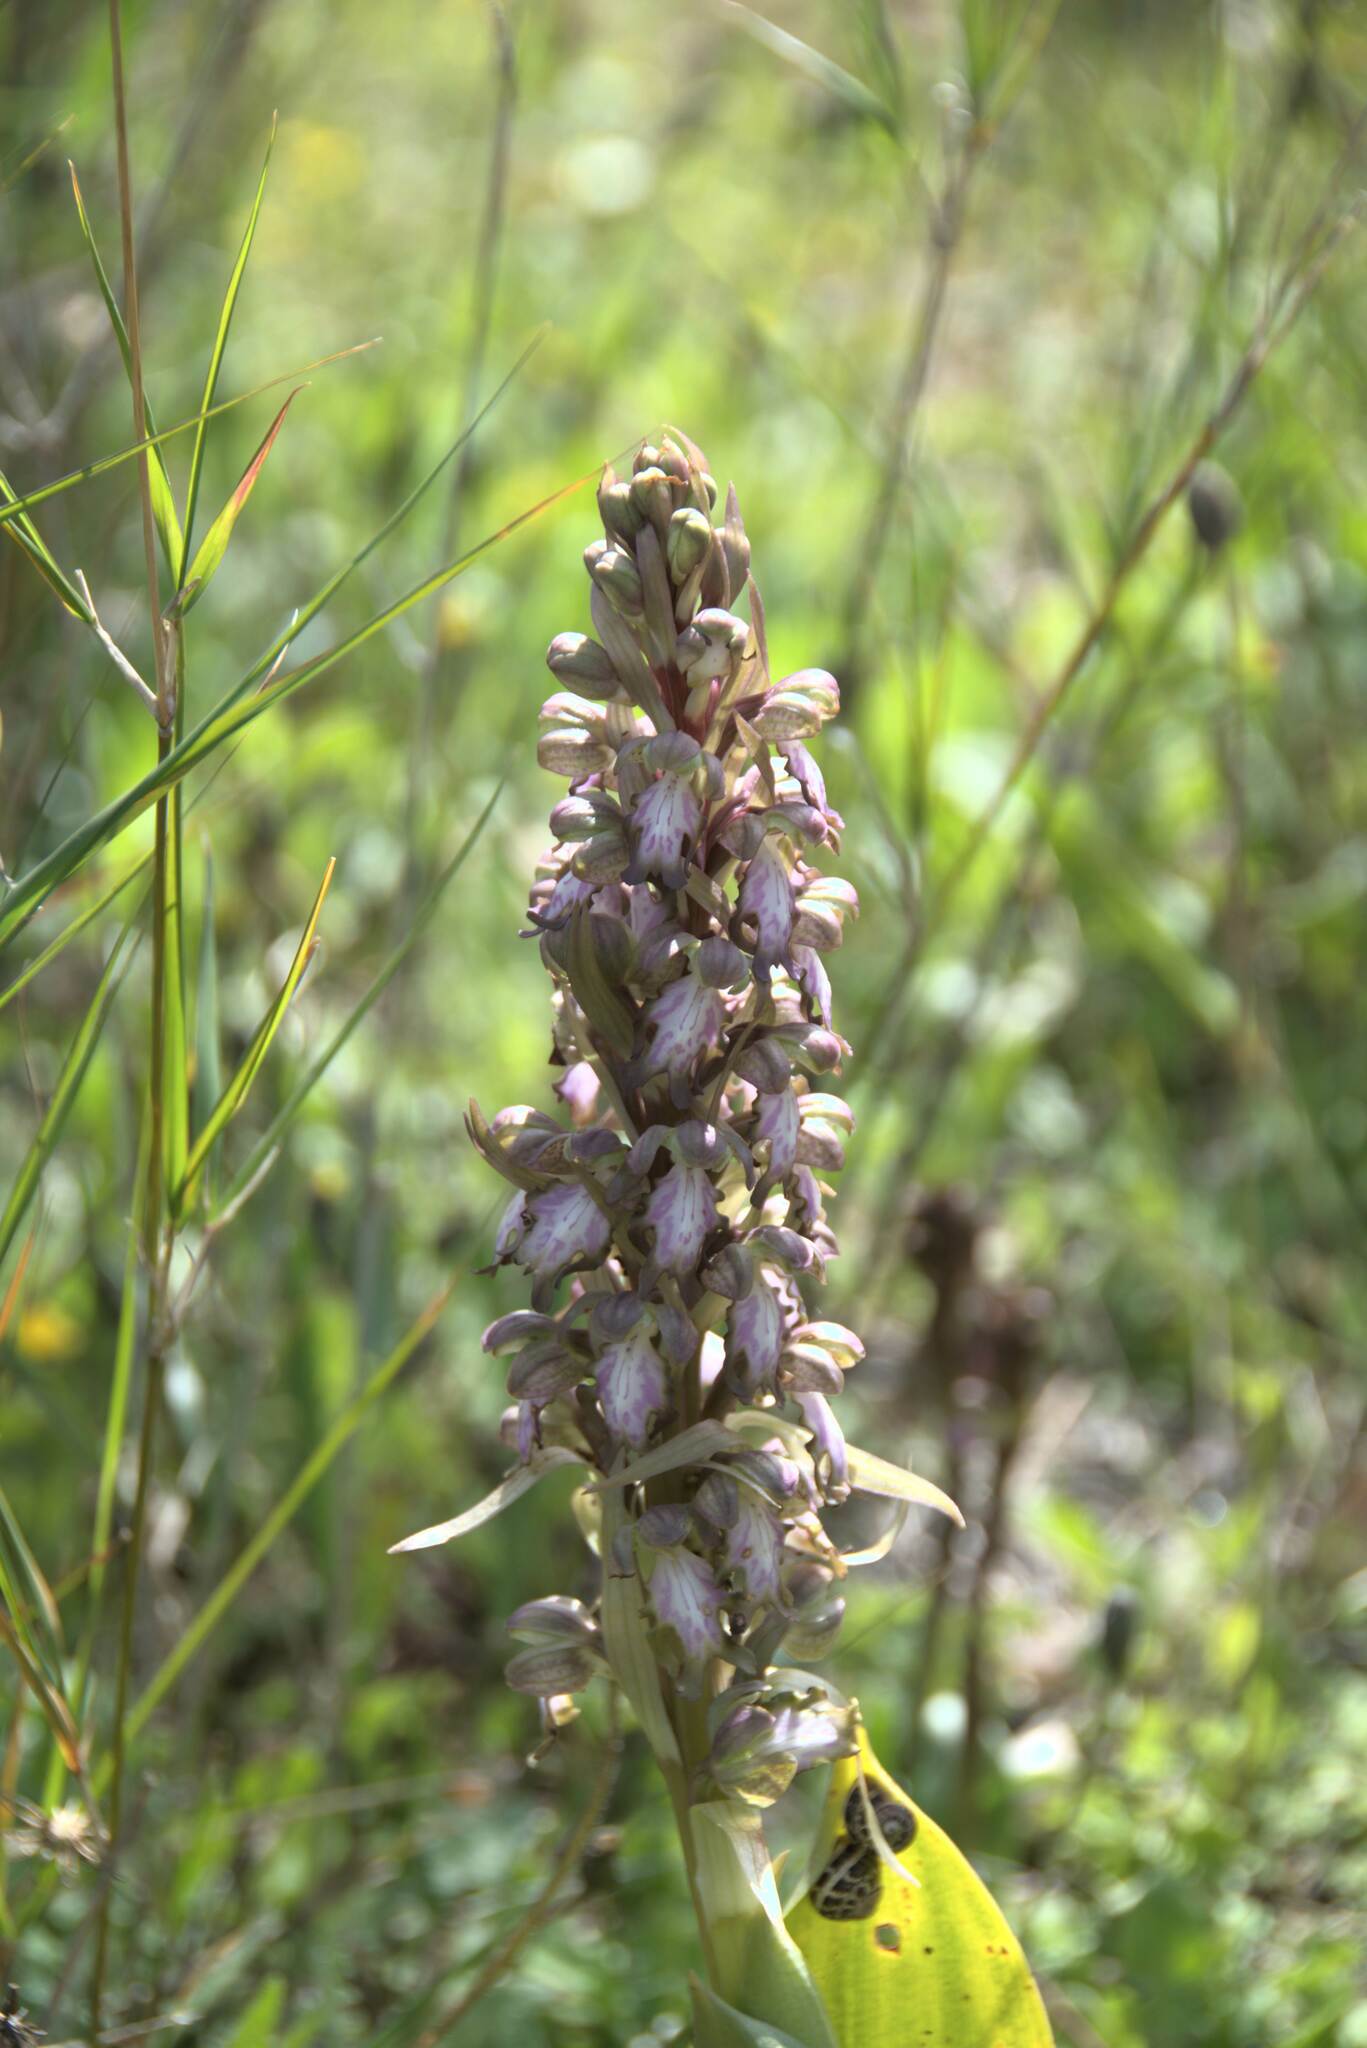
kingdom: Plantae
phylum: Tracheophyta
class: Liliopsida
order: Asparagales
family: Orchidaceae
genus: Himantoglossum
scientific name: Himantoglossum robertianum
